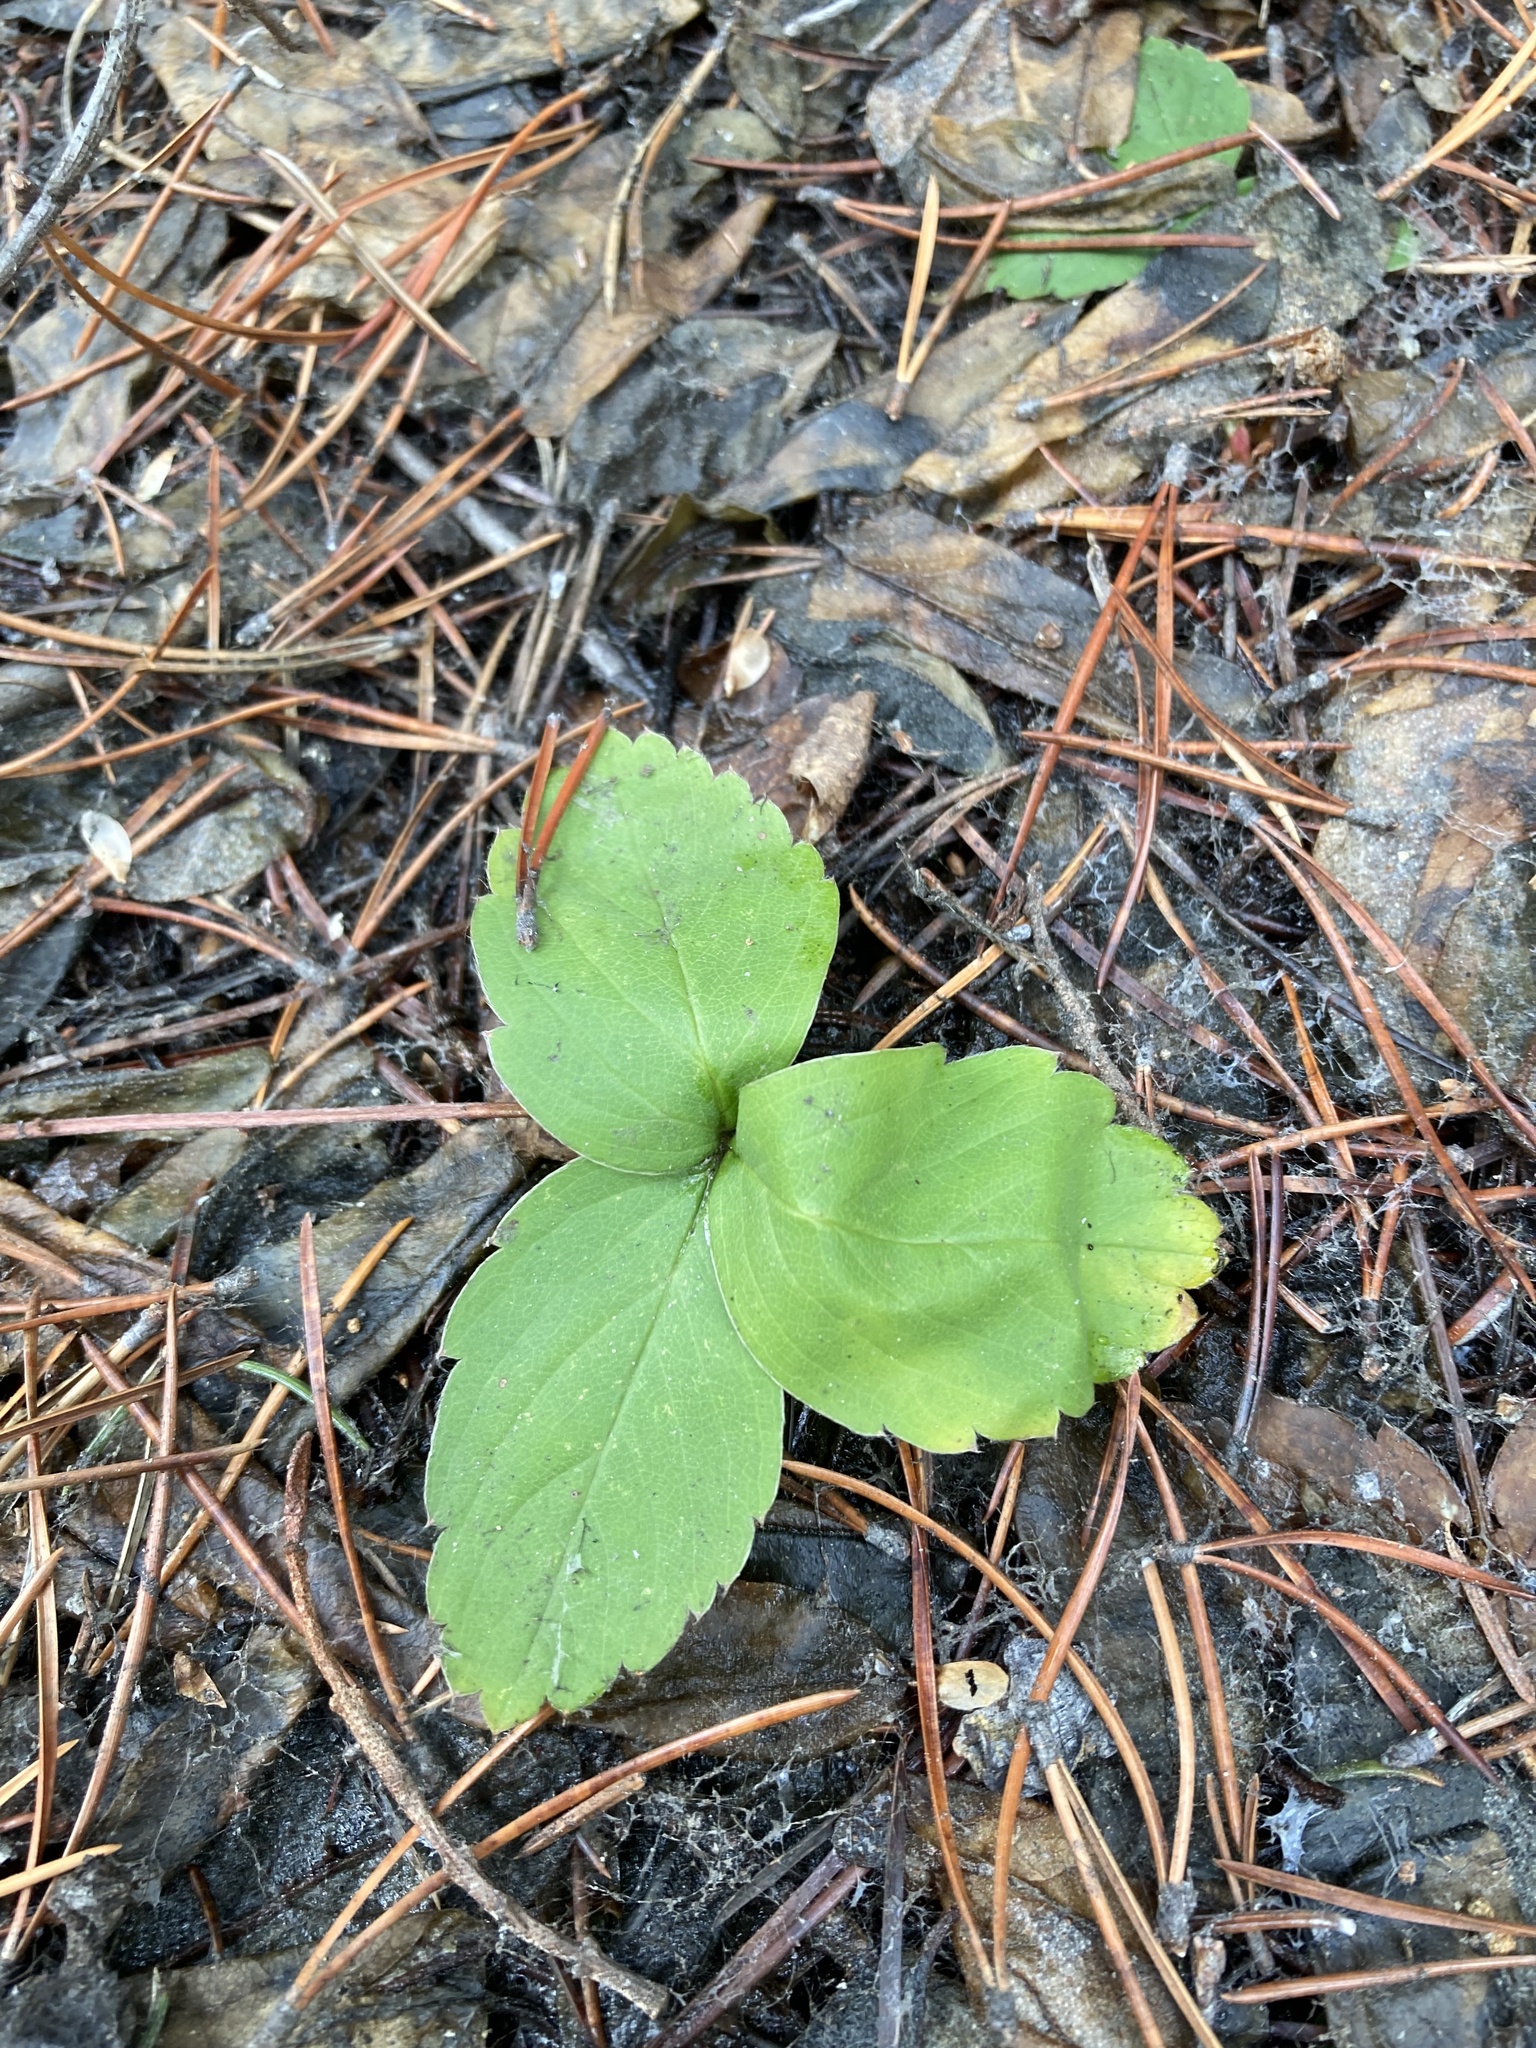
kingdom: Plantae
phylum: Tracheophyta
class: Magnoliopsida
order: Rosales
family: Rosaceae
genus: Fragaria
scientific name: Fragaria virginiana
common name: Thickleaved wild strawberry
